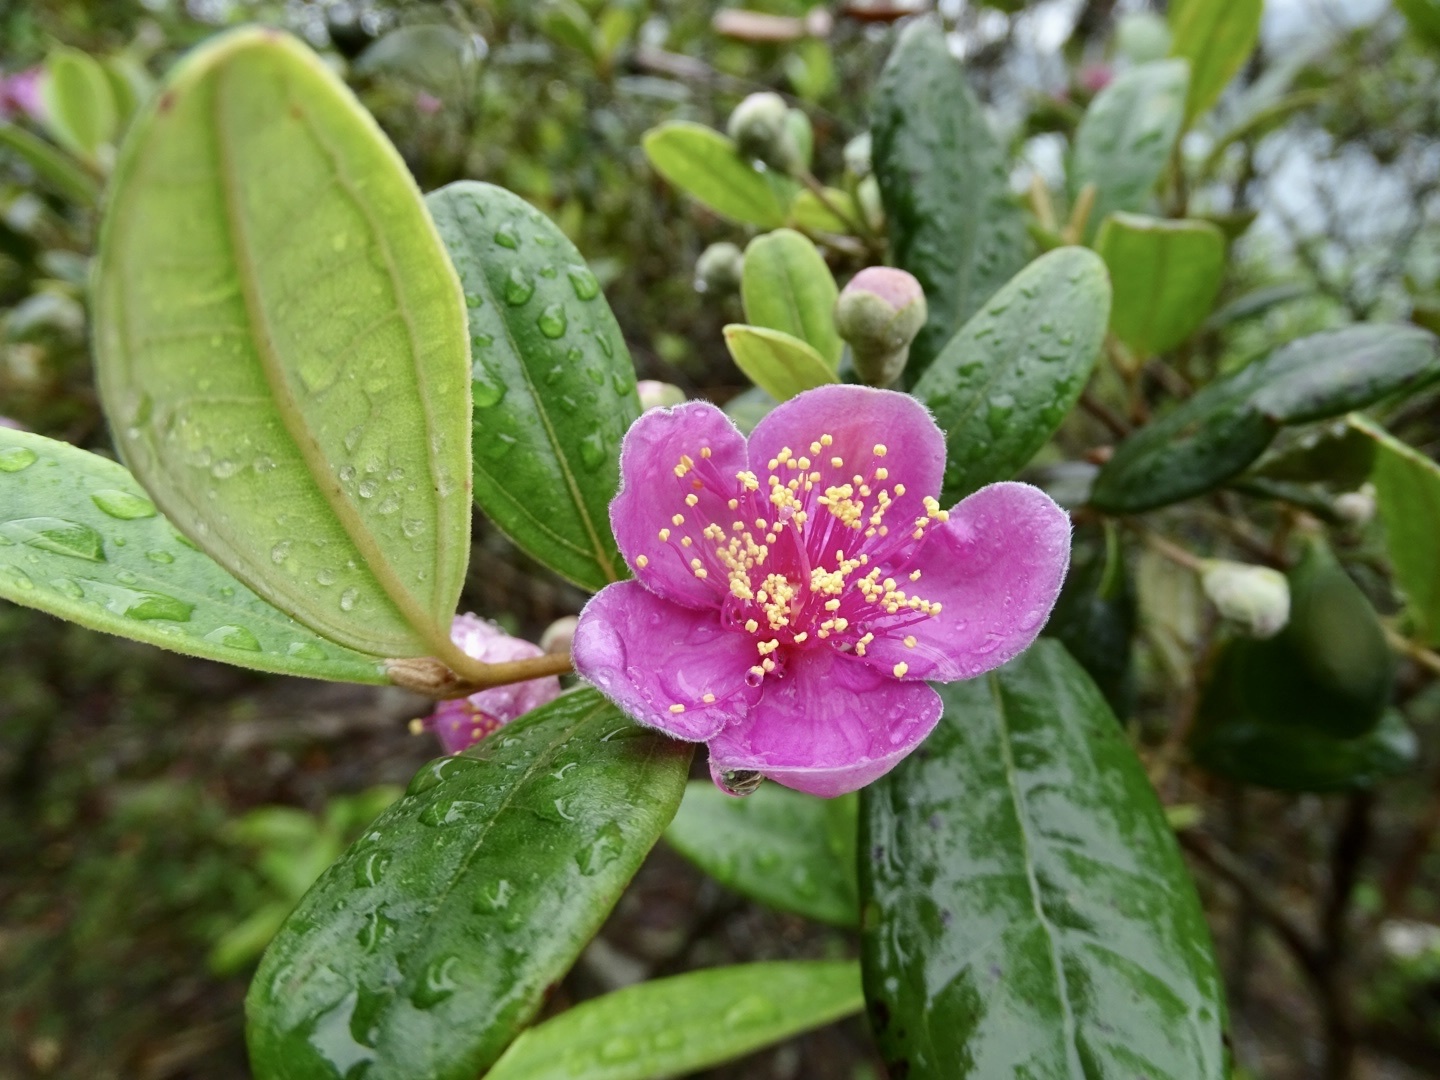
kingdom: Plantae
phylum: Tracheophyta
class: Magnoliopsida
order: Myrtales
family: Myrtaceae
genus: Rhodomyrtus
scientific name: Rhodomyrtus tomentosa
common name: Rose myrtle
